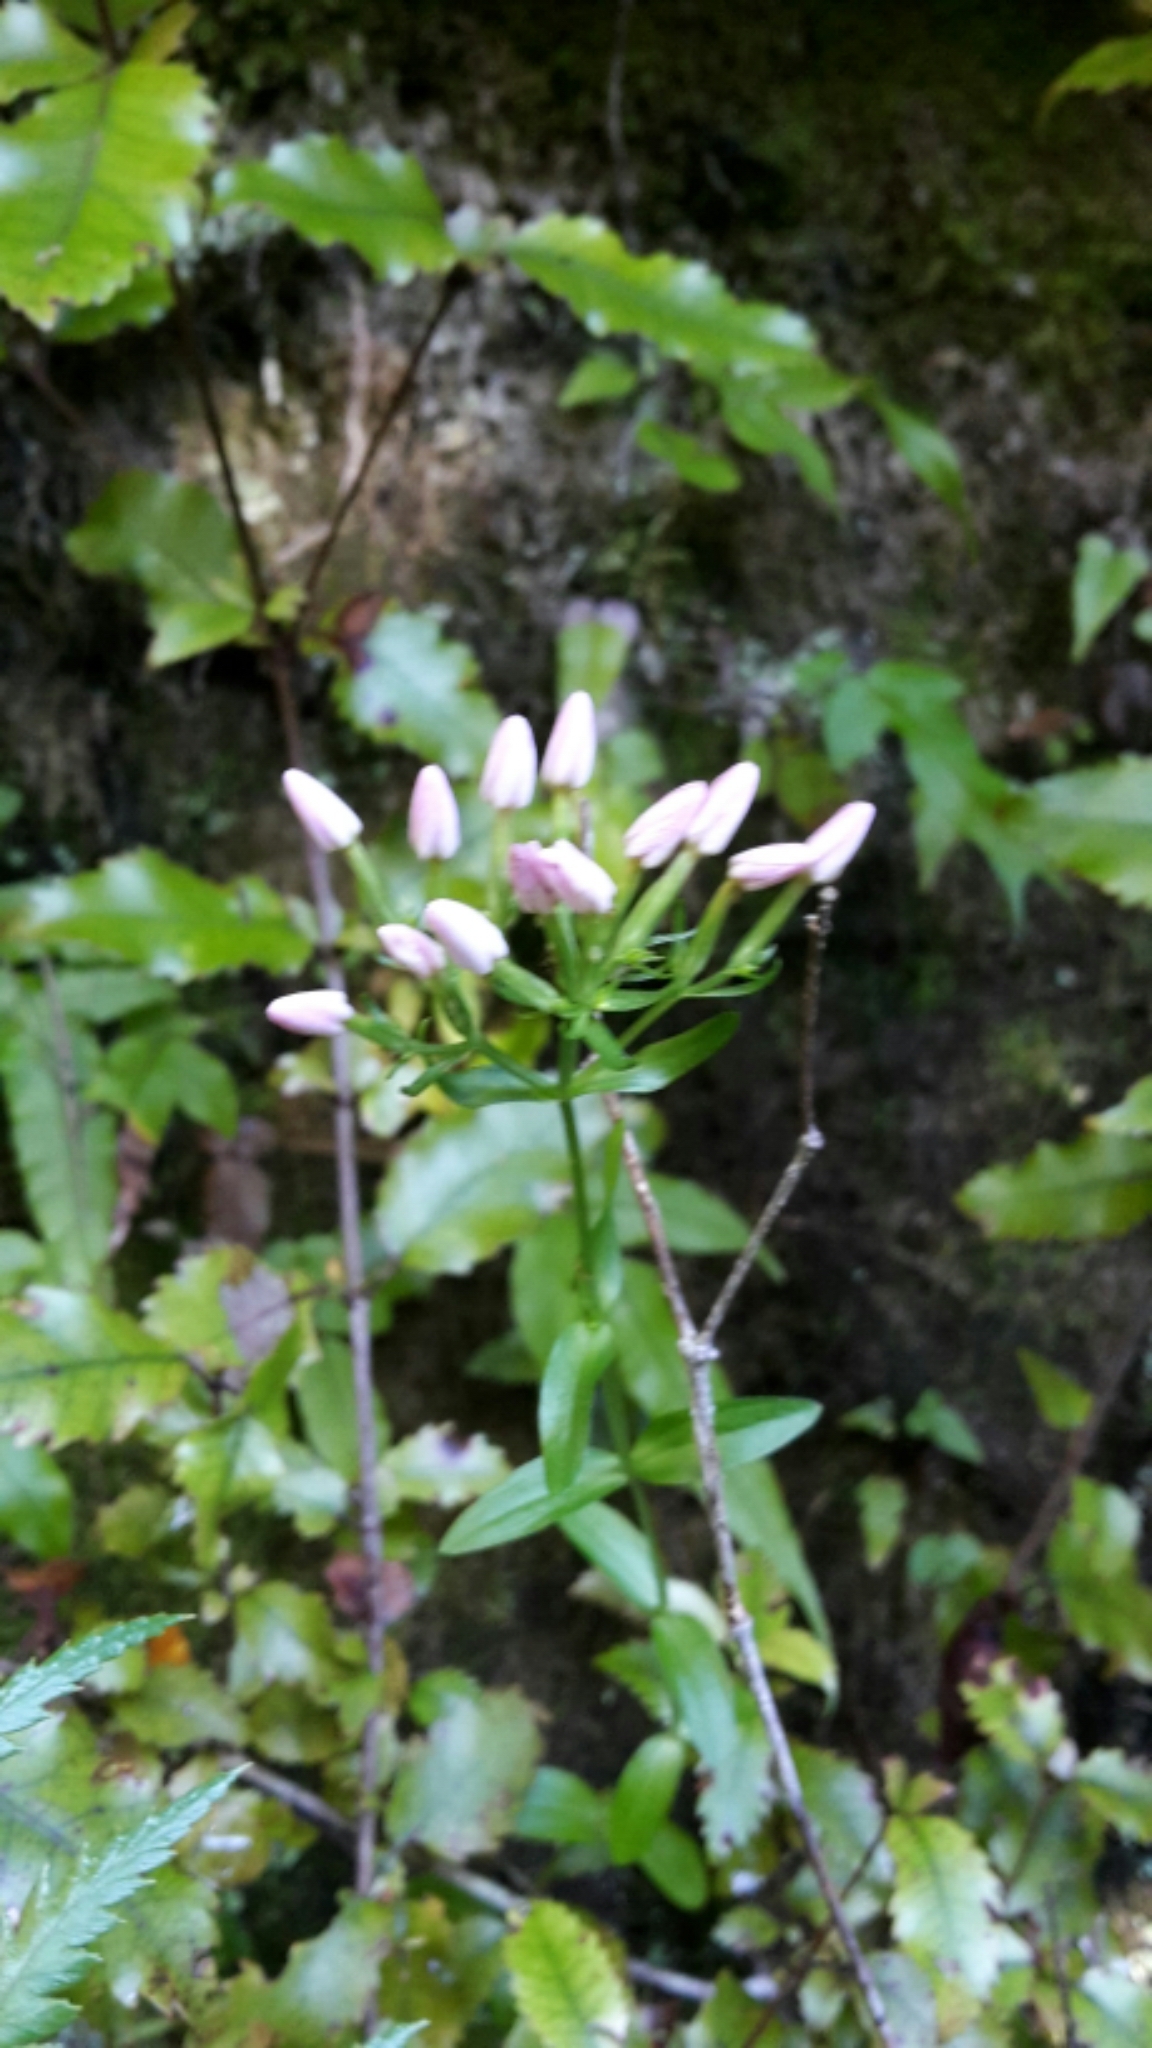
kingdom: Plantae
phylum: Tracheophyta
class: Magnoliopsida
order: Gentianales
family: Gentianaceae
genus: Centaurium
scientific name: Centaurium erythraea
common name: Common centaury
